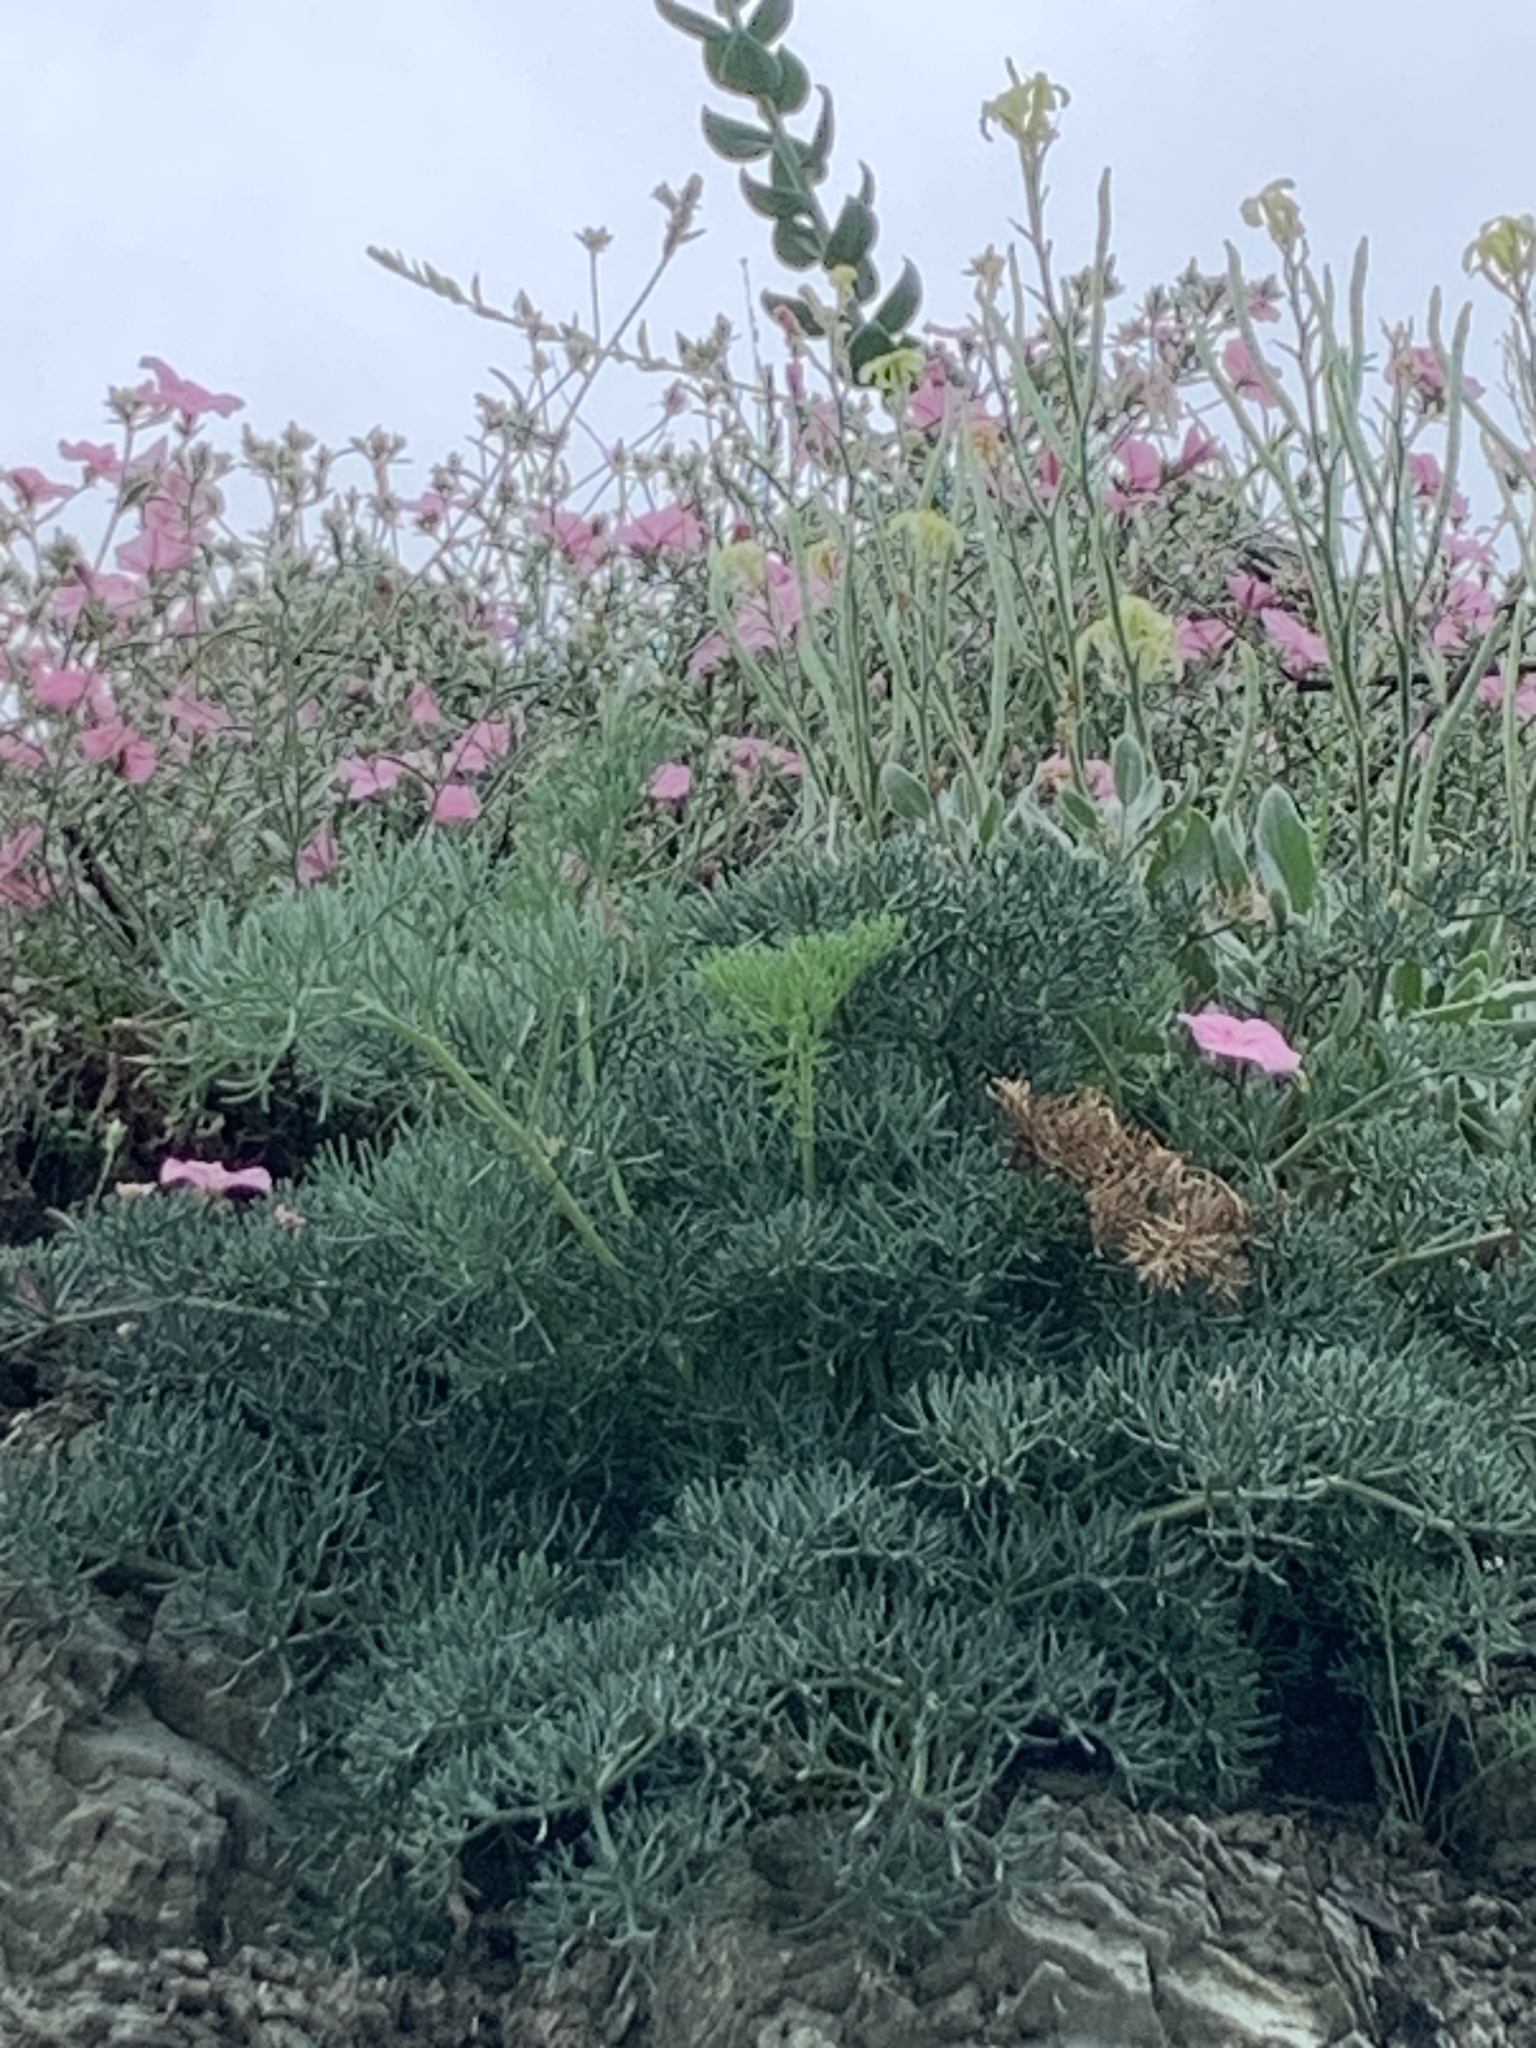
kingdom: Plantae
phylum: Tracheophyta
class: Magnoliopsida
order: Apiales
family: Apiaceae
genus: Seseli
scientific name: Seseli ponticum
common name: Pontic seseli
